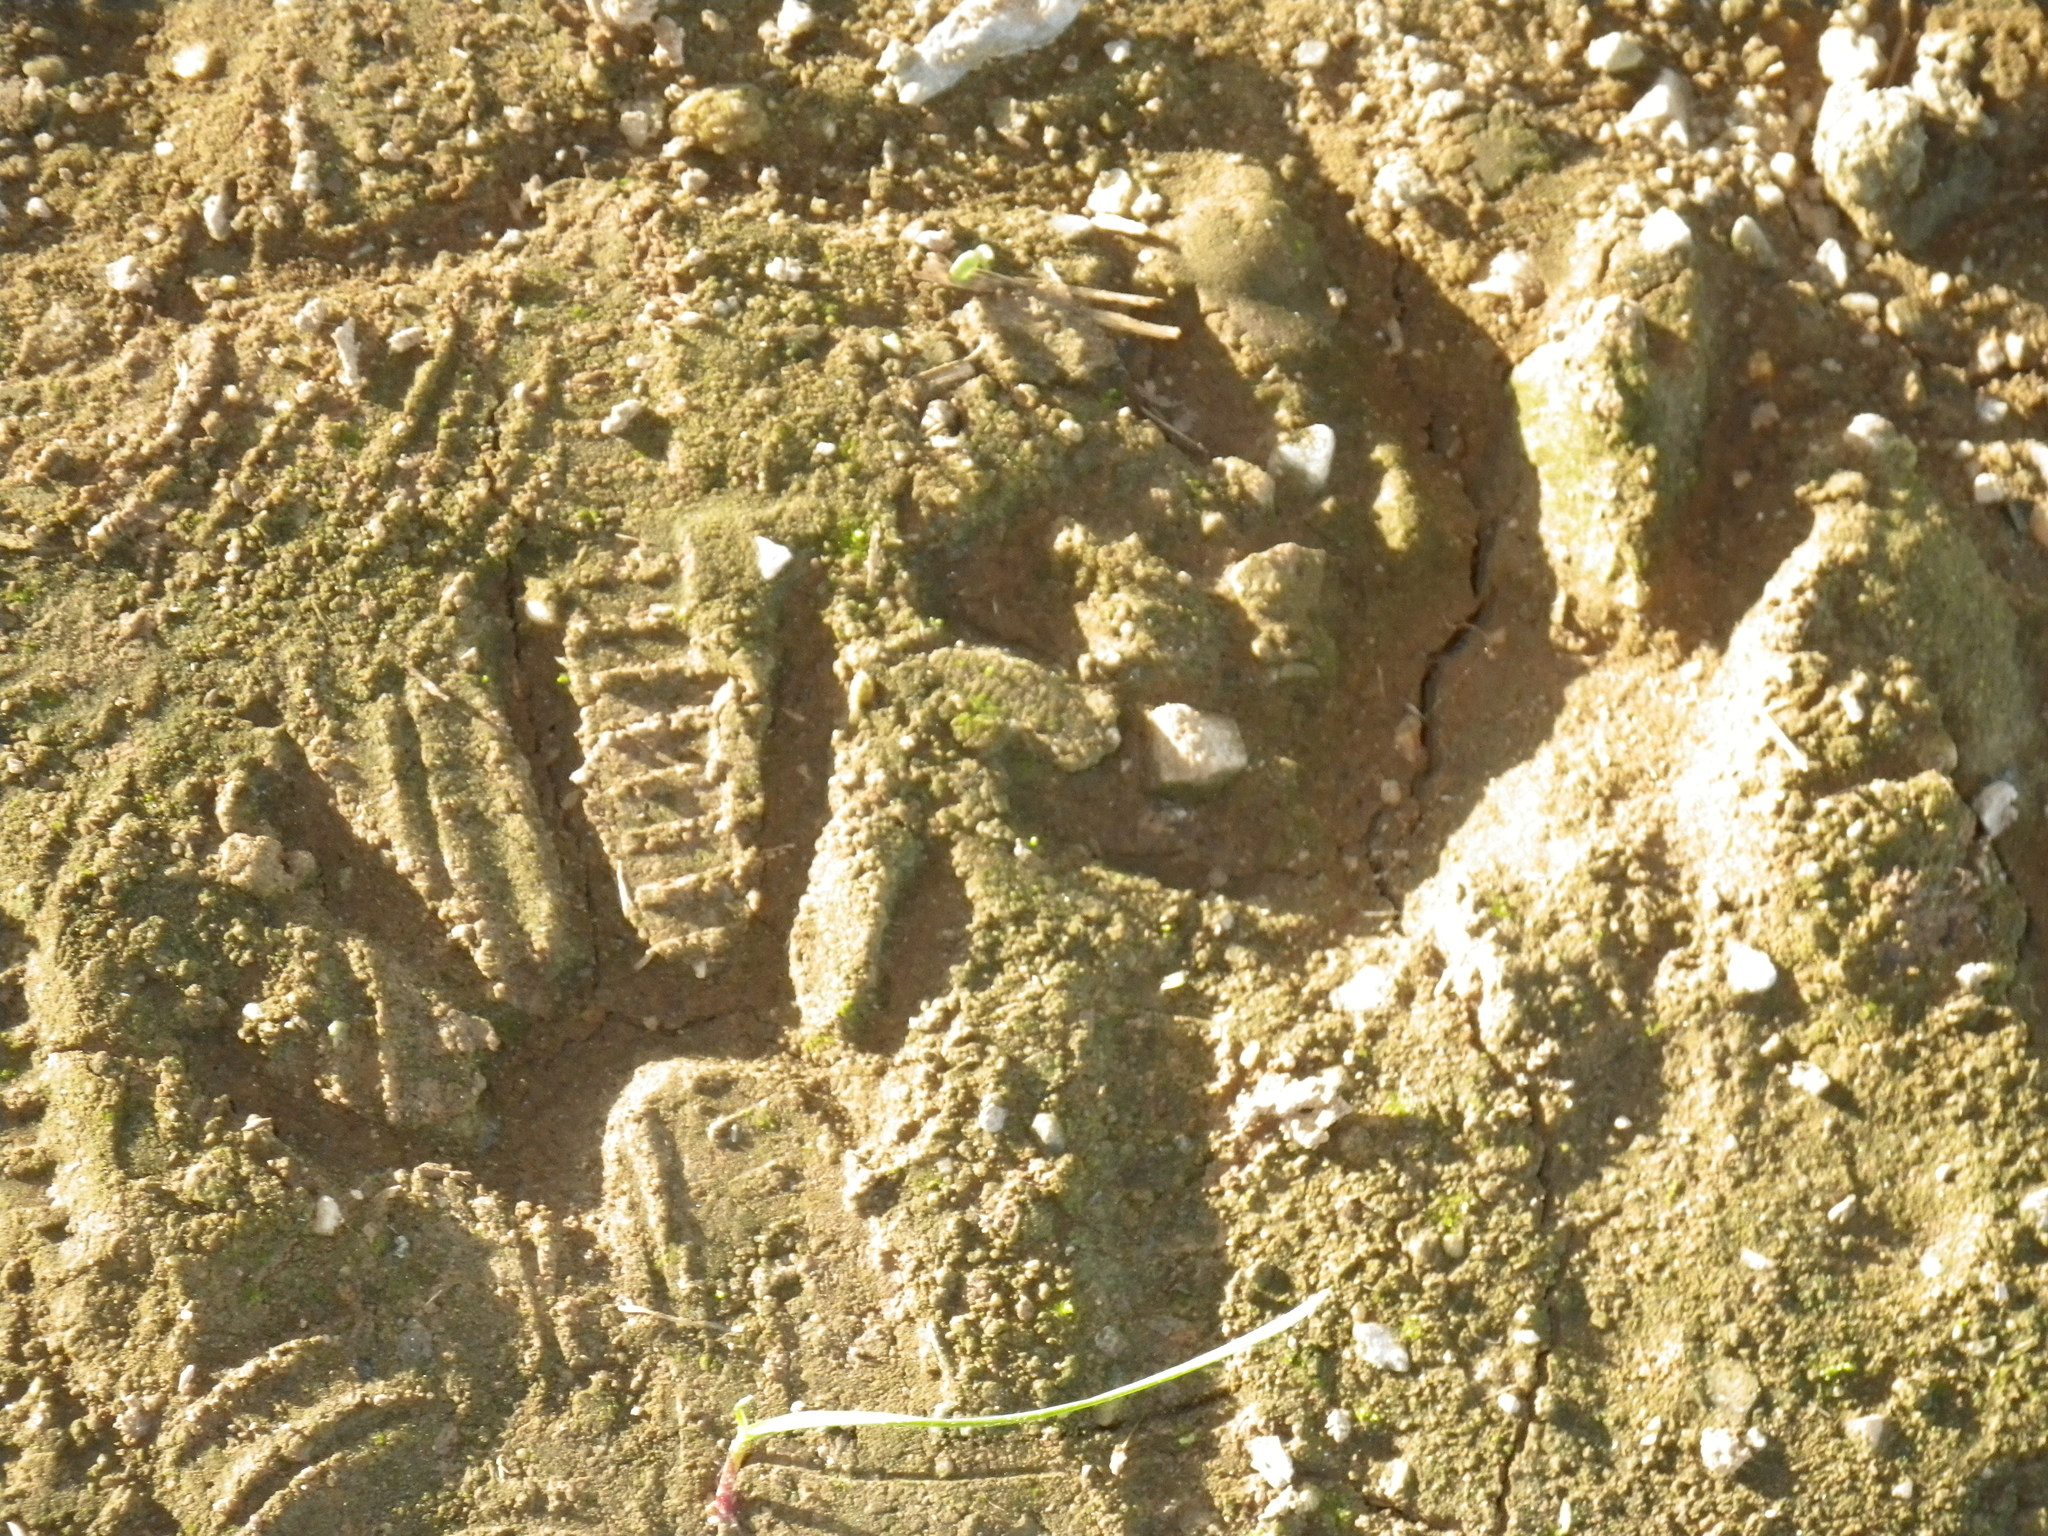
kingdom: Animalia
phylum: Chordata
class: Mammalia
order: Carnivora
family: Procyonidae
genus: Procyon
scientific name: Procyon lotor
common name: Raccoon
